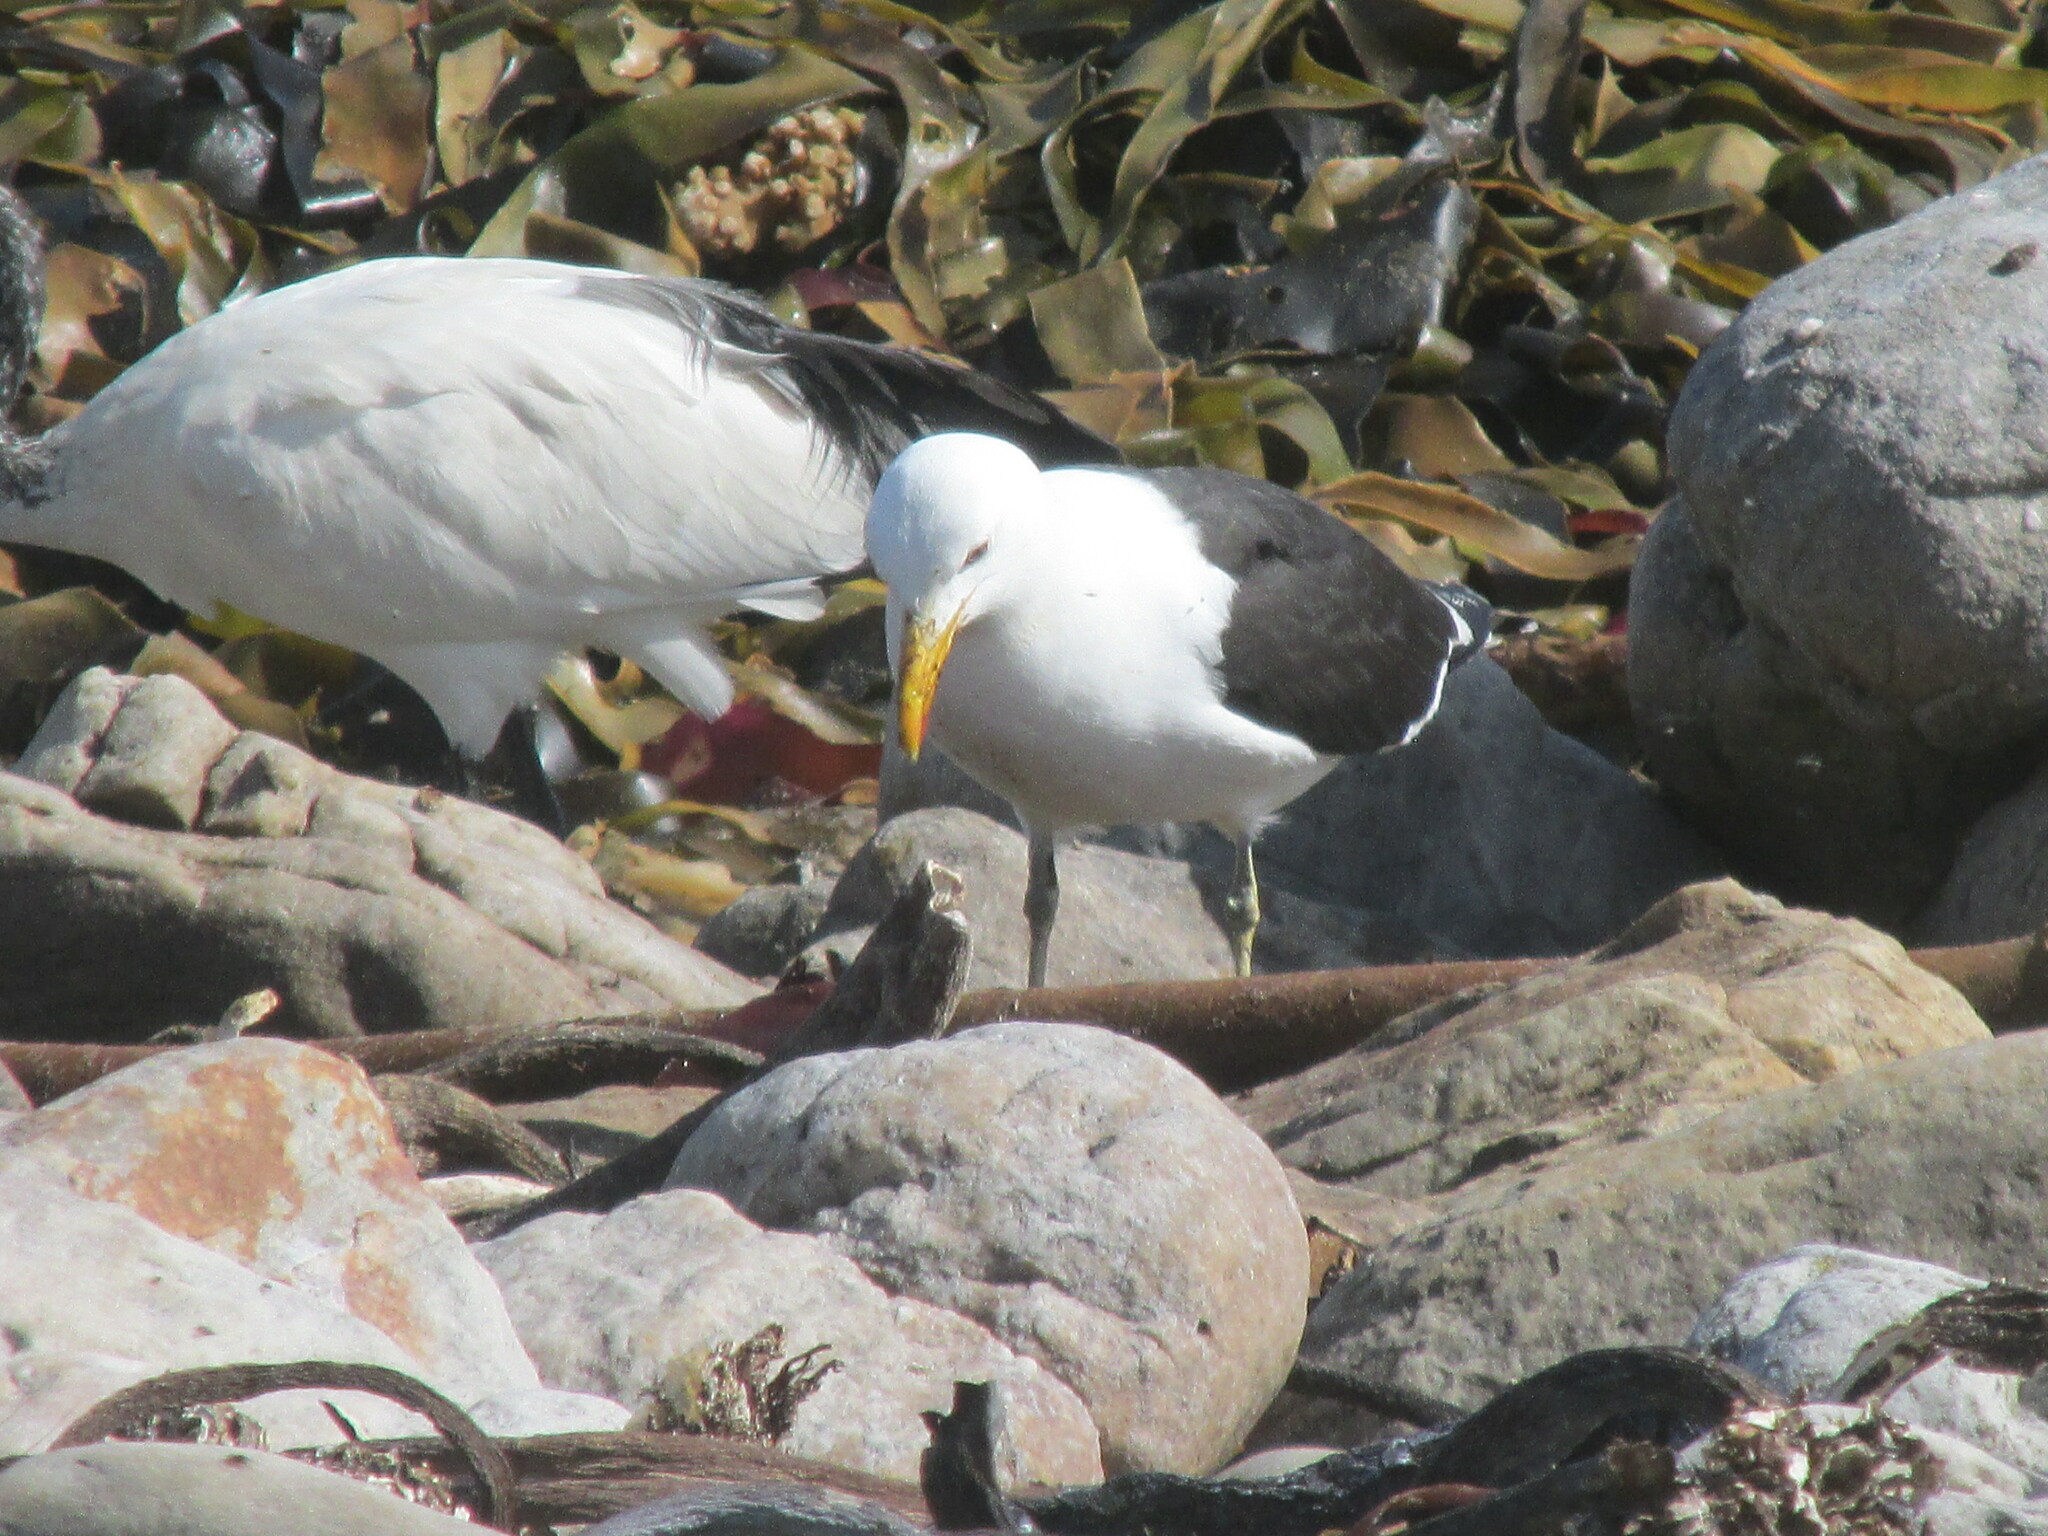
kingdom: Animalia
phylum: Chordata
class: Aves
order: Charadriiformes
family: Laridae
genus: Larus
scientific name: Larus dominicanus
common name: Kelp gull
